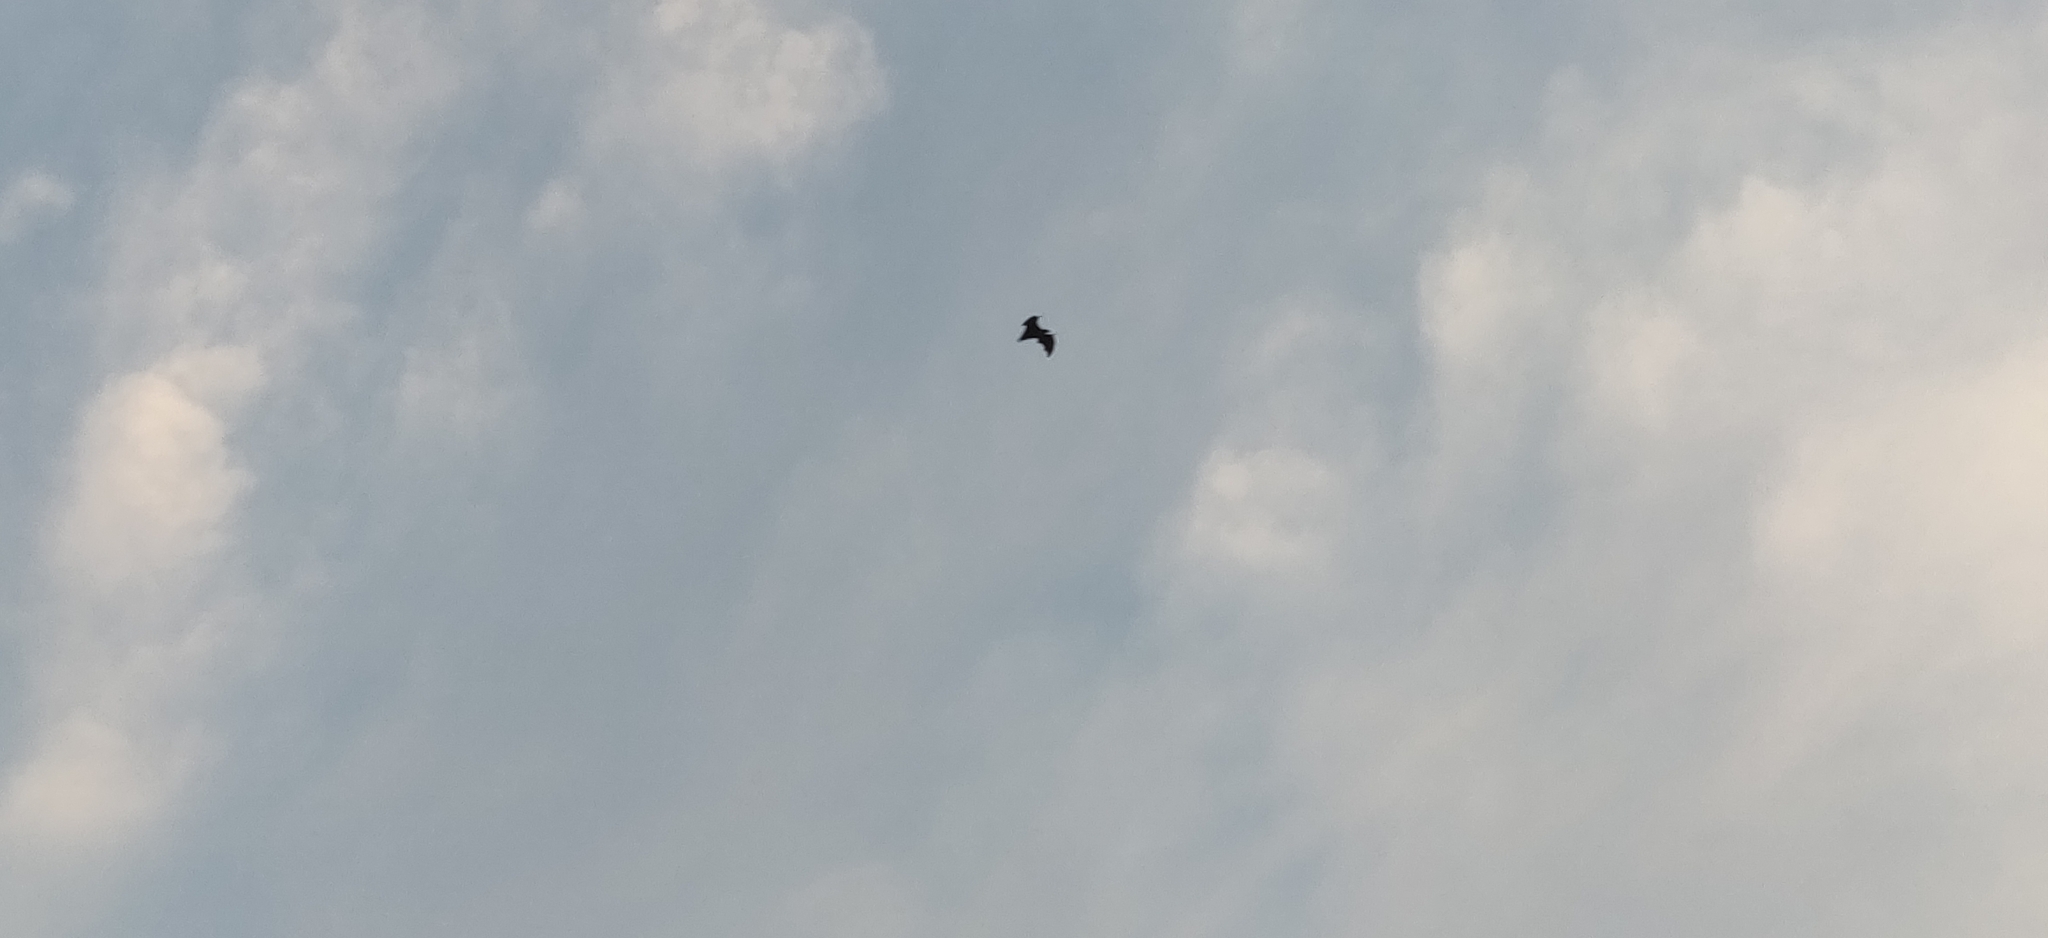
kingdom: Animalia
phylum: Chordata
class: Mammalia
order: Chiroptera
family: Pteropodidae
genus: Pteropus
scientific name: Pteropus vampyrus
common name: Large flying fox
